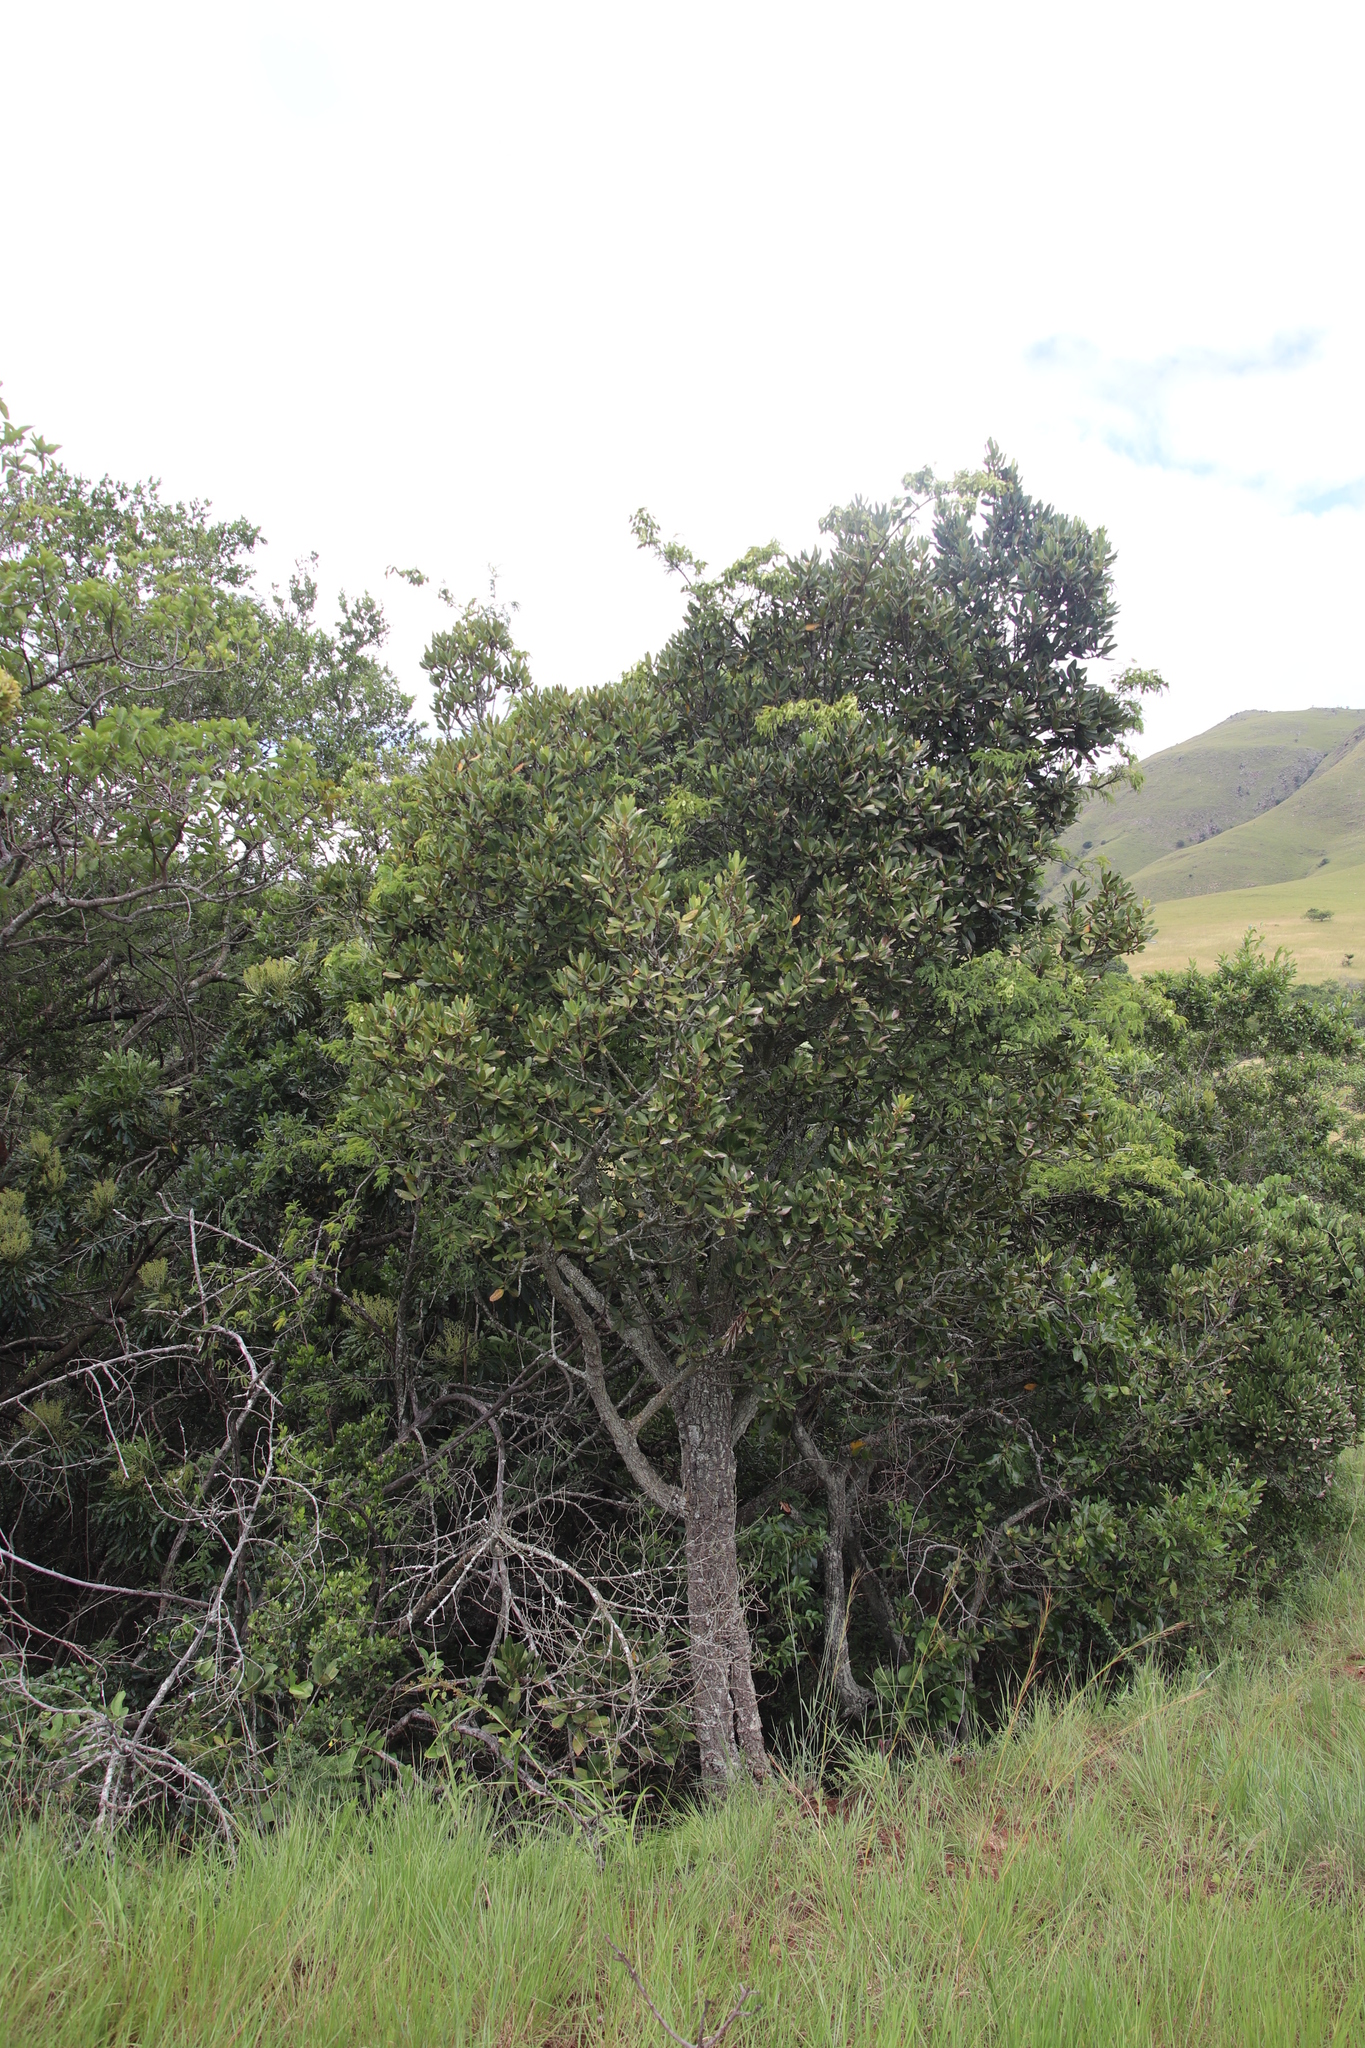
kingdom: Plantae
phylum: Tracheophyta
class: Magnoliopsida
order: Ericales
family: Primulaceae
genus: Myrsine
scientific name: Myrsine melanophloeos
